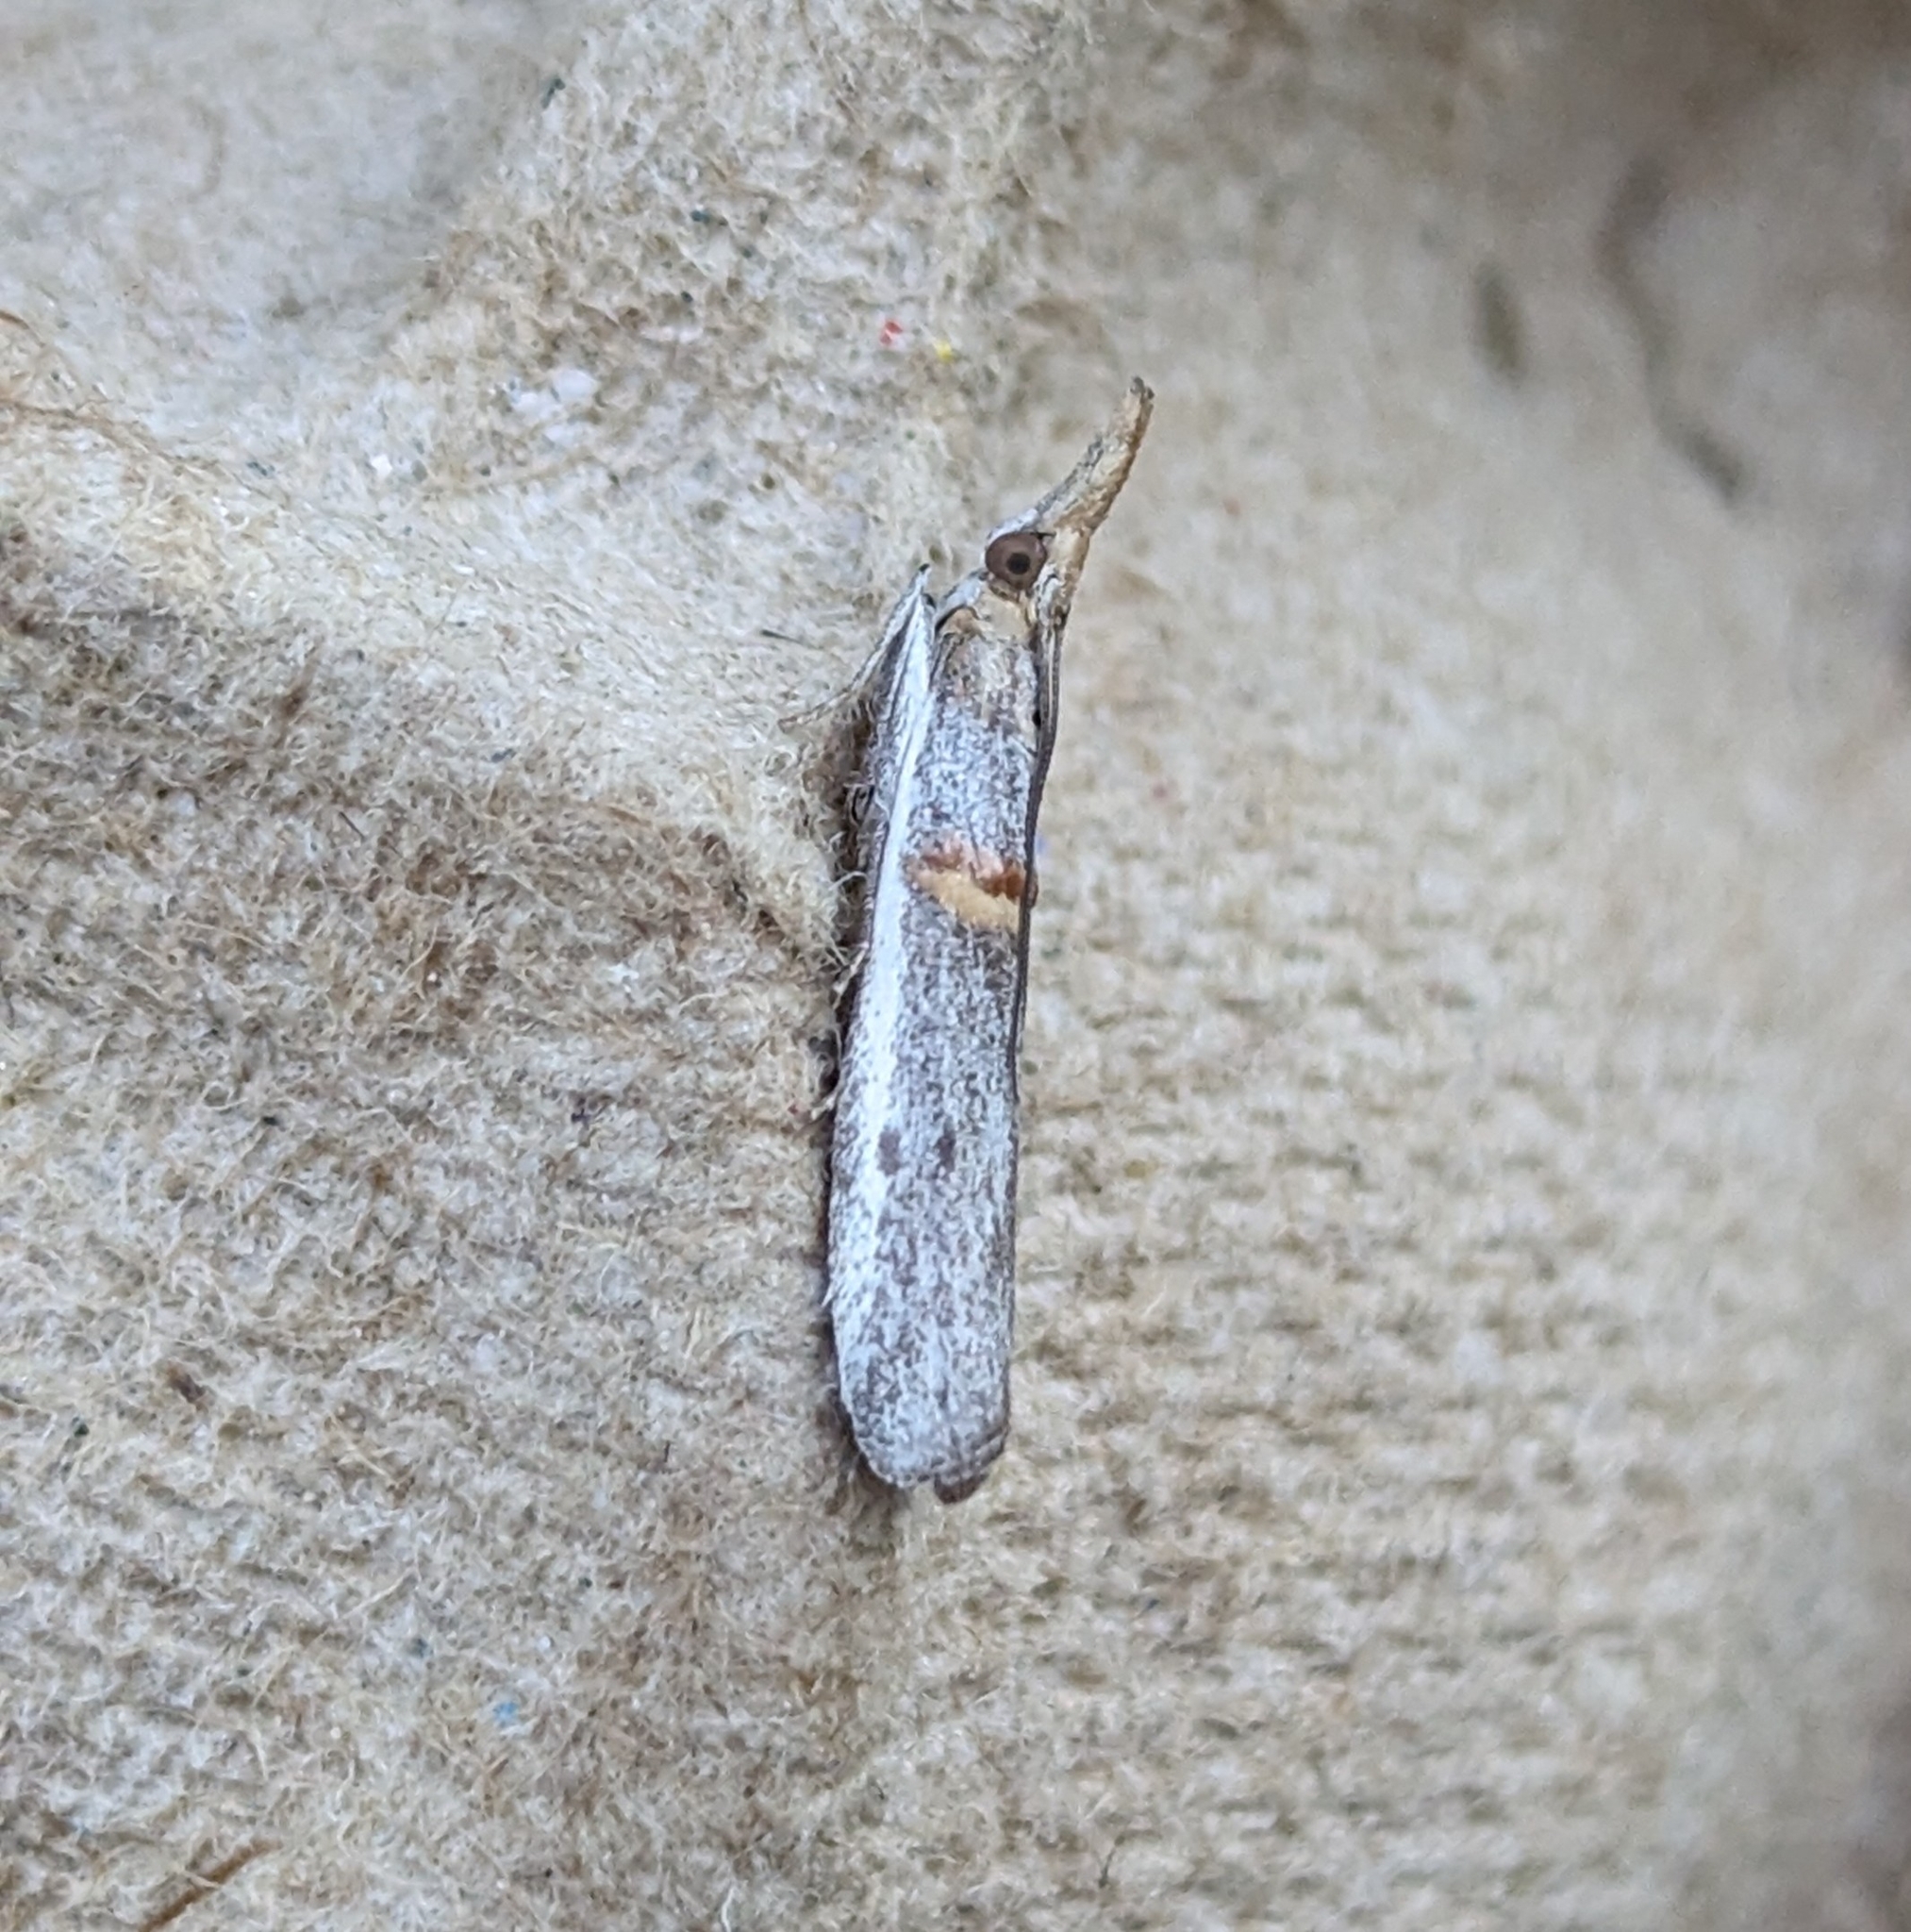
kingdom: Animalia
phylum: Arthropoda
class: Insecta
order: Lepidoptera
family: Pyralidae
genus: Etiella
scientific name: Etiella zinckenella
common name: Gold-banded etiella moth
